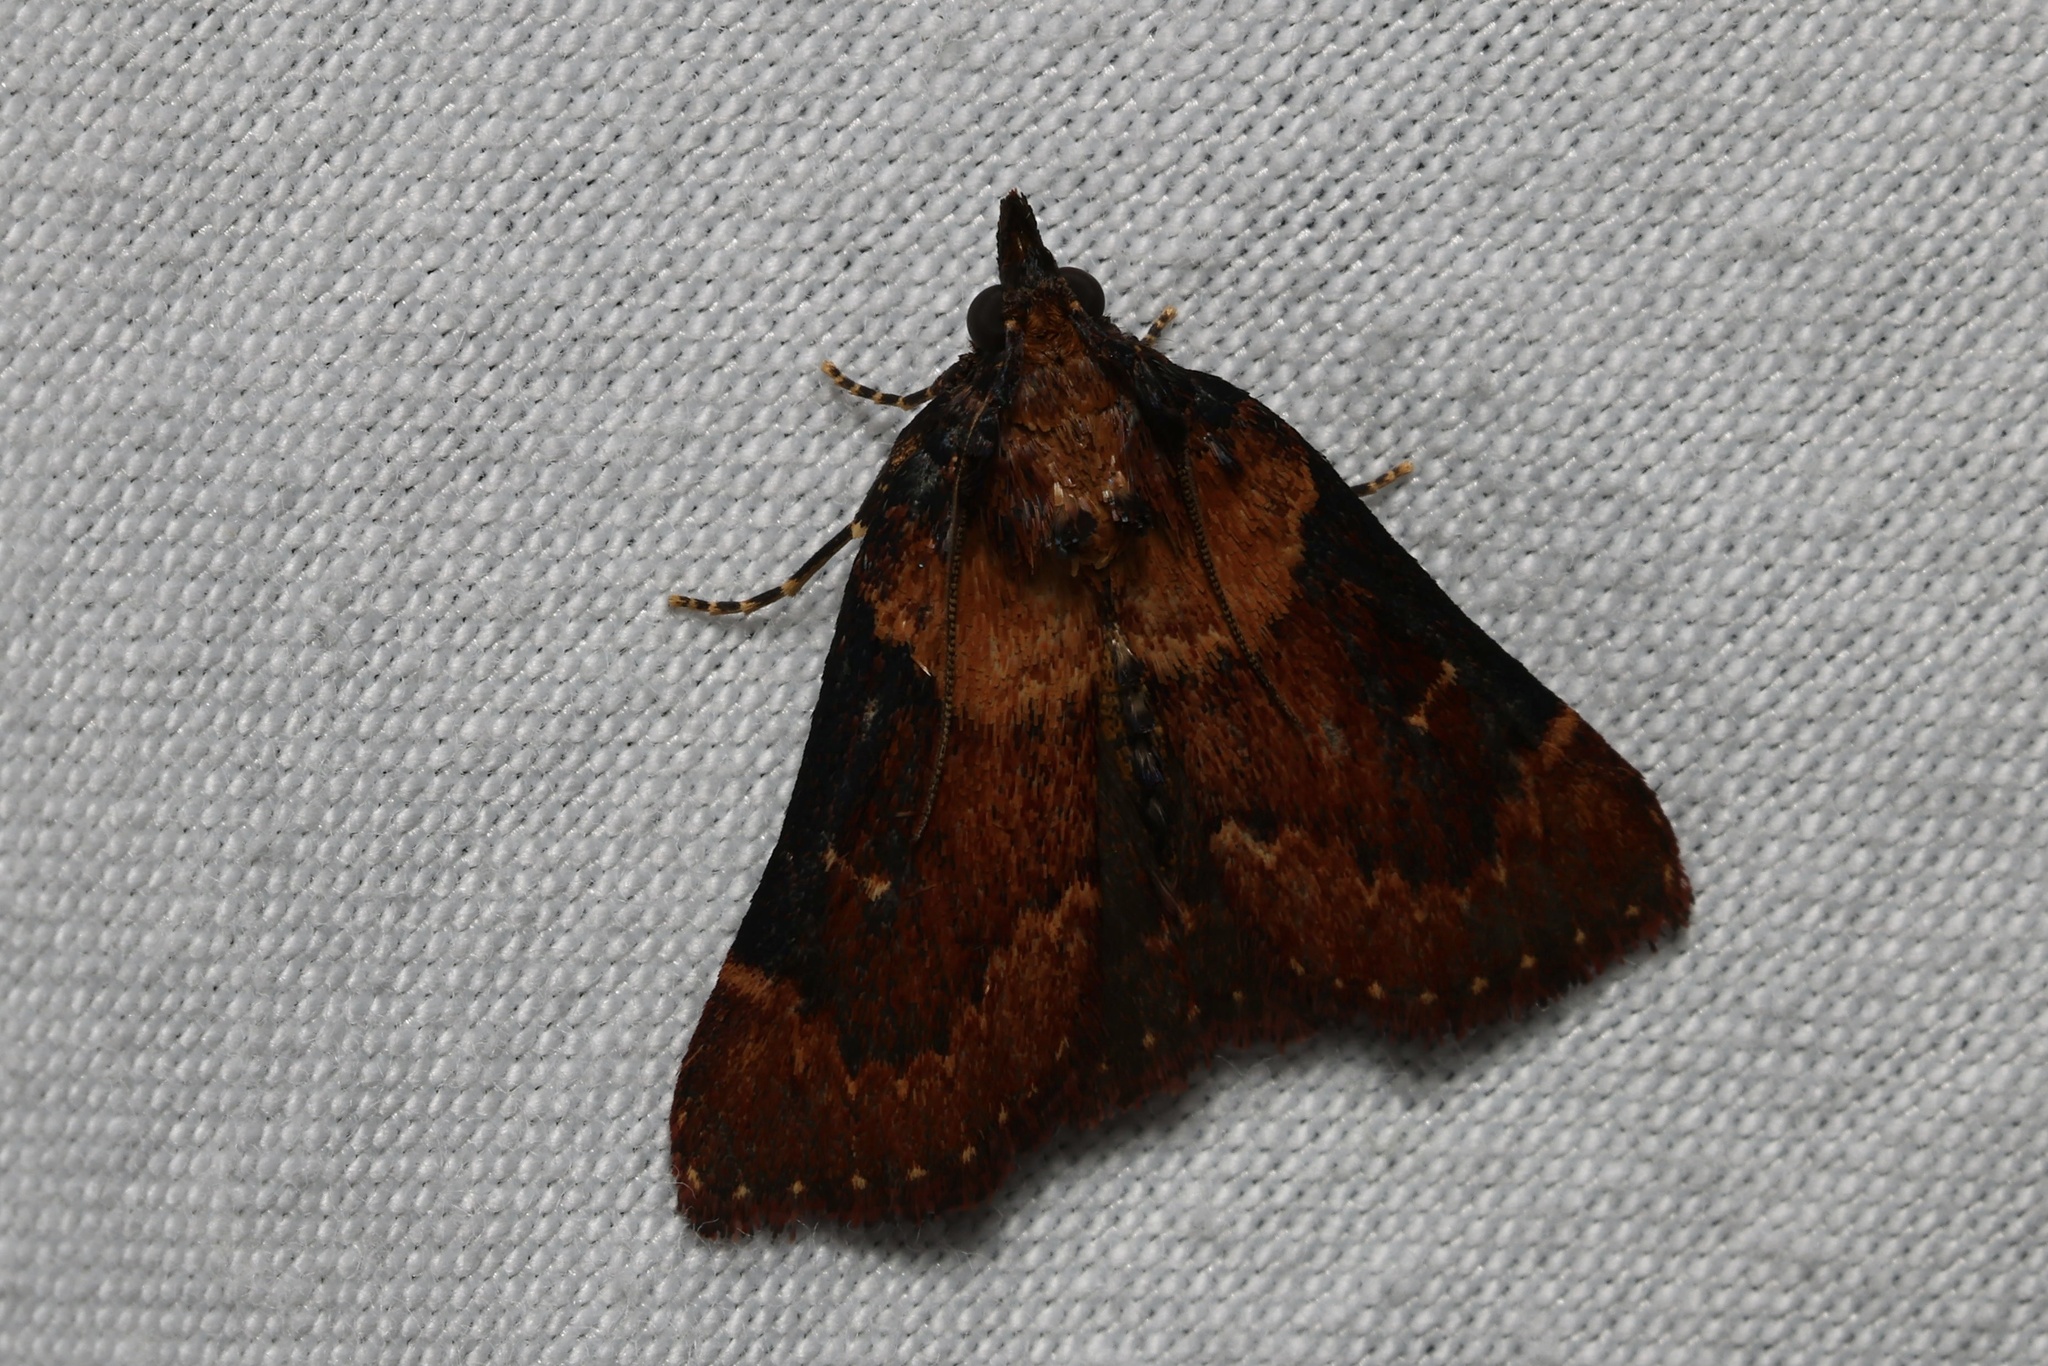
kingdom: Animalia
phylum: Arthropoda
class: Insecta
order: Lepidoptera
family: Pyralidae
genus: Omphalocera
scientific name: Omphalocera munroei
